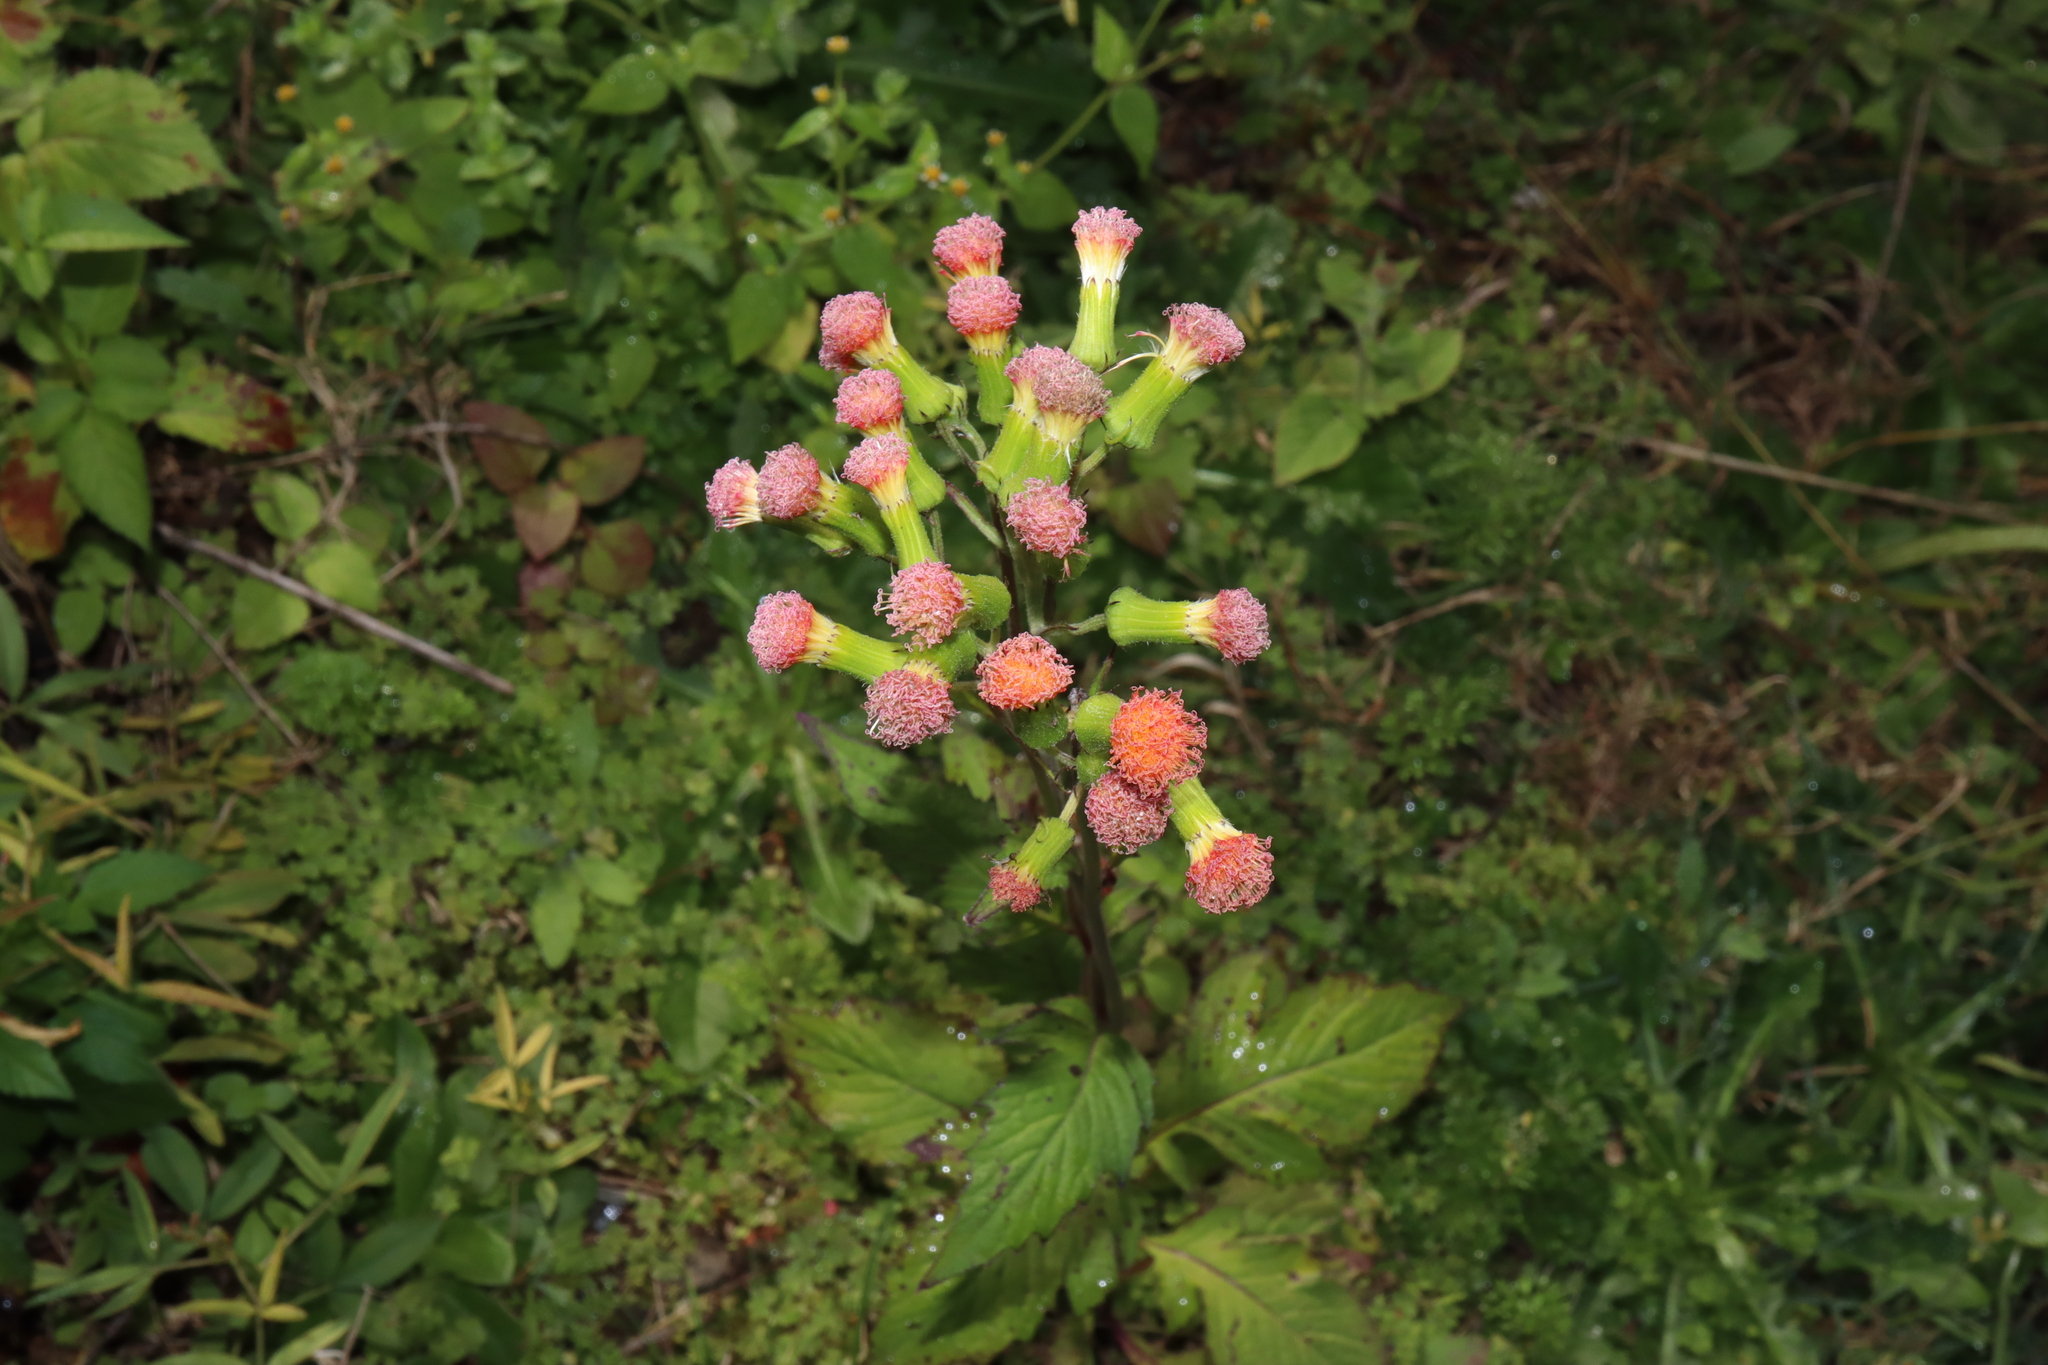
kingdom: Plantae
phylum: Tracheophyta
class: Magnoliopsida
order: Asterales
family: Asteraceae
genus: Crassocephalum
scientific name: Crassocephalum crepidioides
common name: Redflower ragleaf
